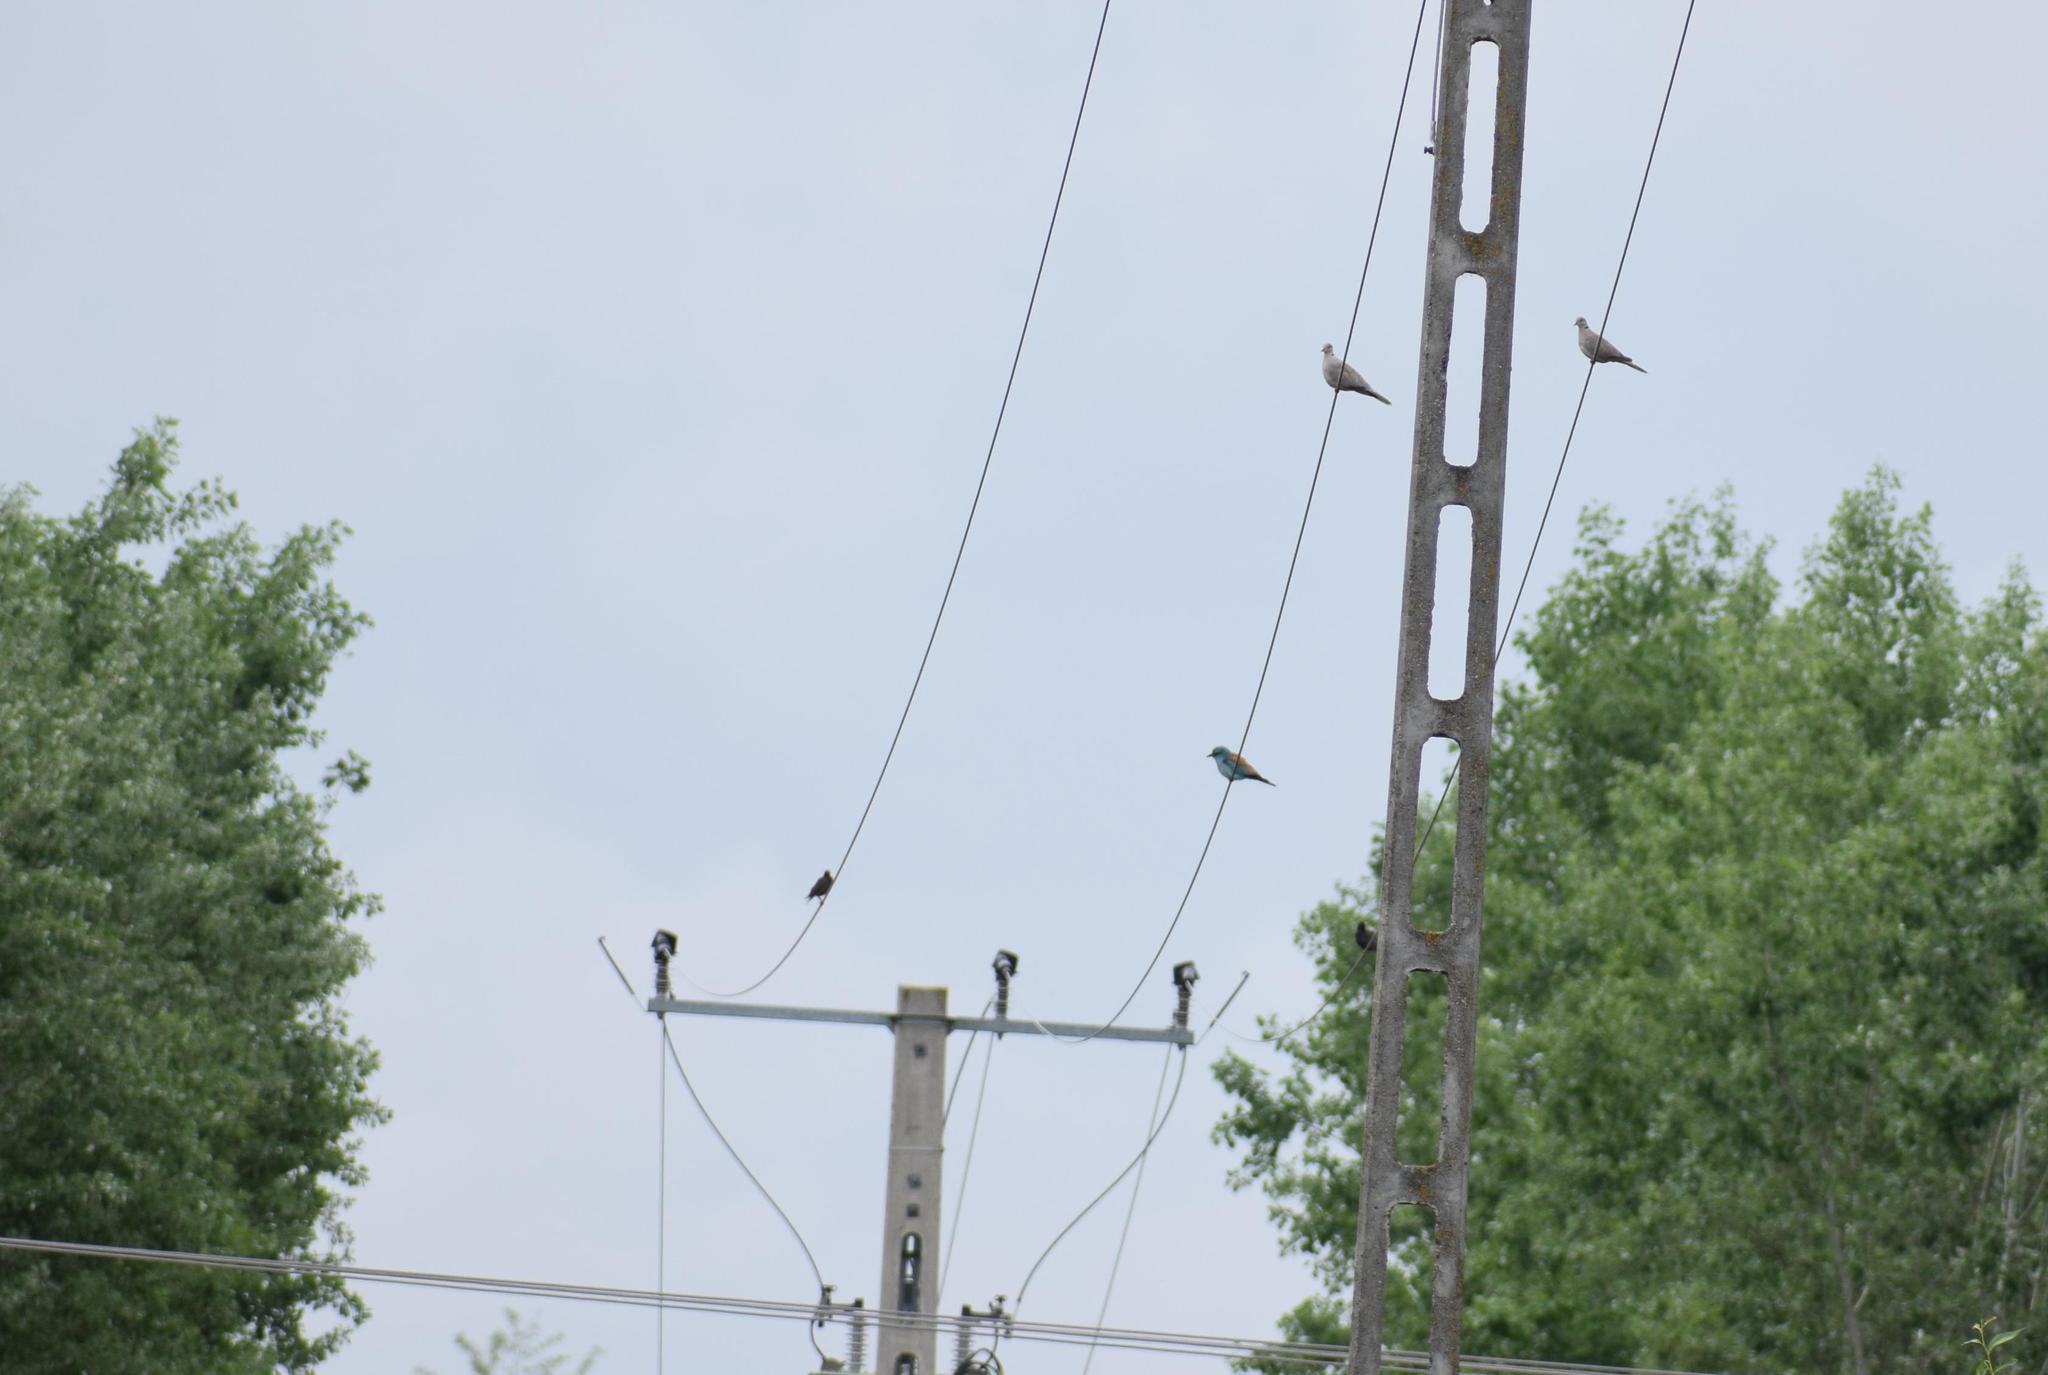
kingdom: Animalia
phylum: Chordata
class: Aves
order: Coraciiformes
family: Coraciidae
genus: Coracias
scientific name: Coracias garrulus
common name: European roller
